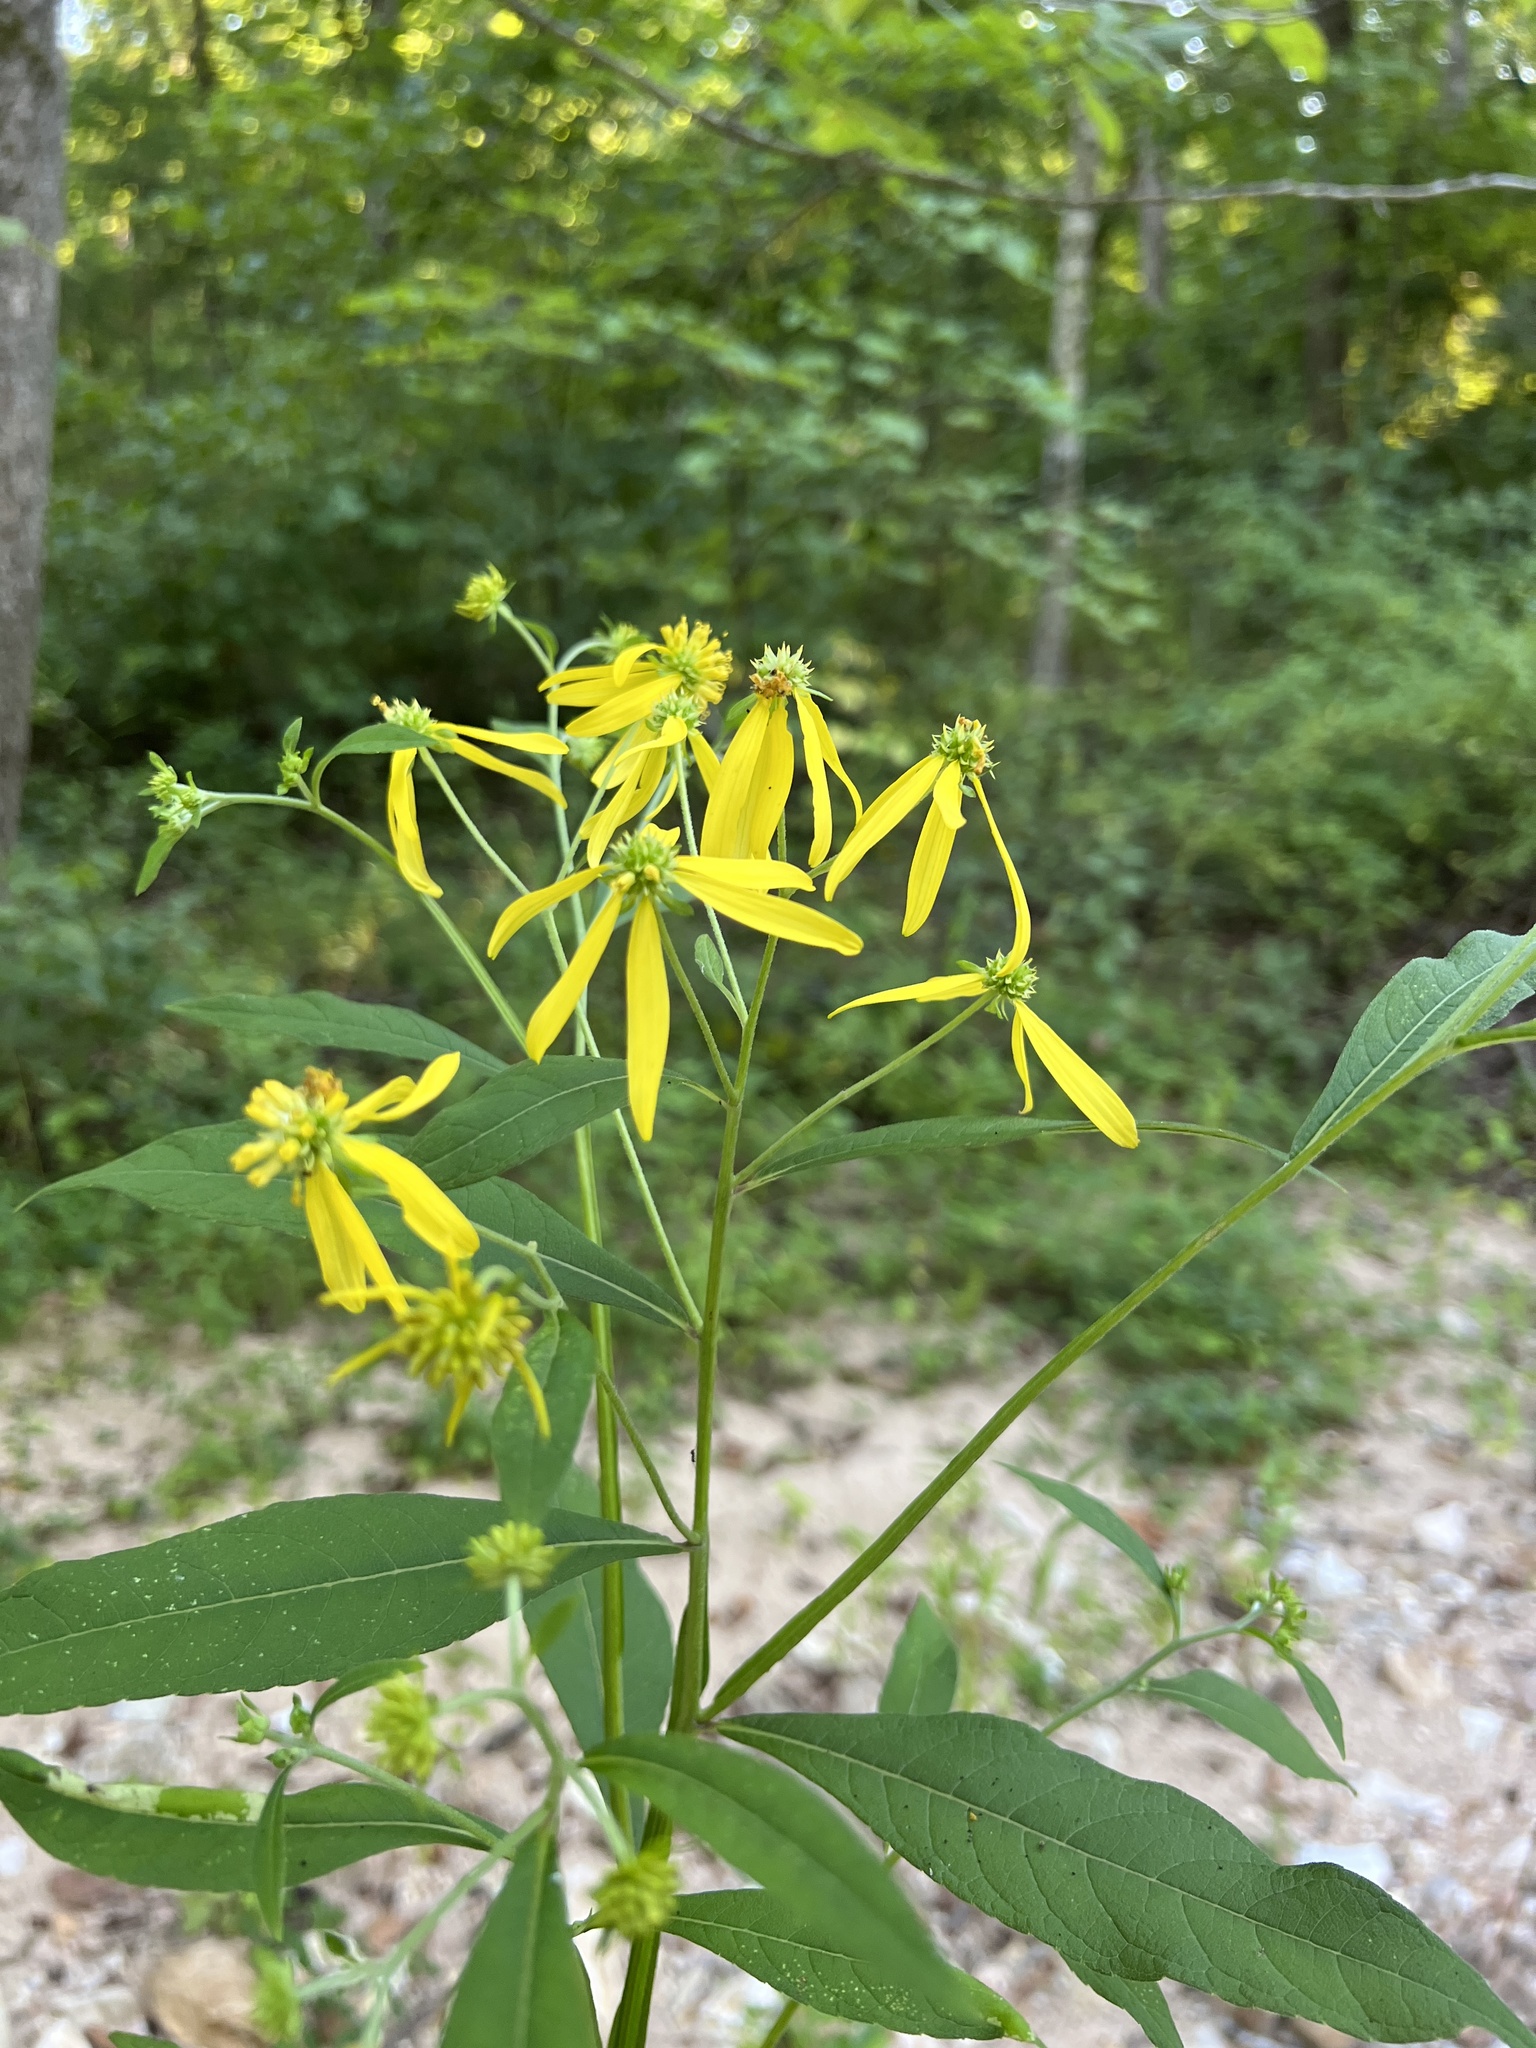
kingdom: Plantae
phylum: Tracheophyta
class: Magnoliopsida
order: Asterales
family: Asteraceae
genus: Verbesina
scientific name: Verbesina alternifolia
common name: Wingstem
